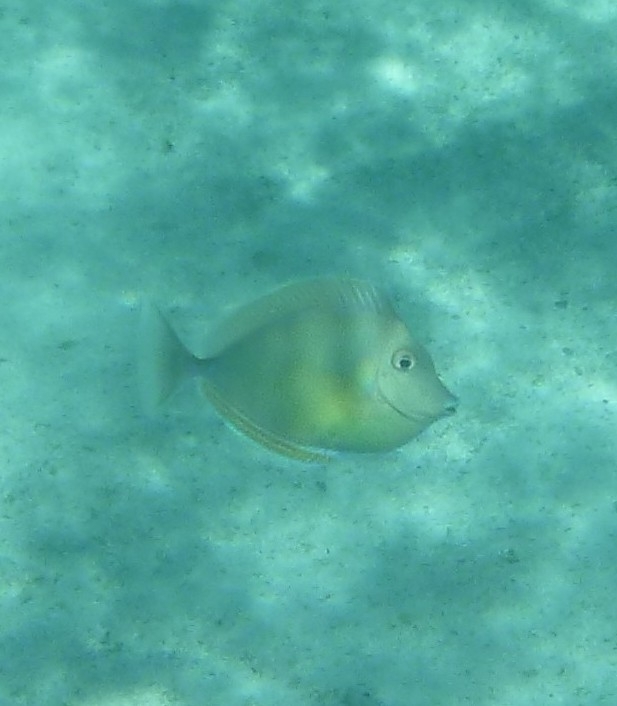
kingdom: Animalia
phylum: Chordata
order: Perciformes
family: Acanthuridae
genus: Naso
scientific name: Naso unicornis
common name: Bluespine unicornfish
